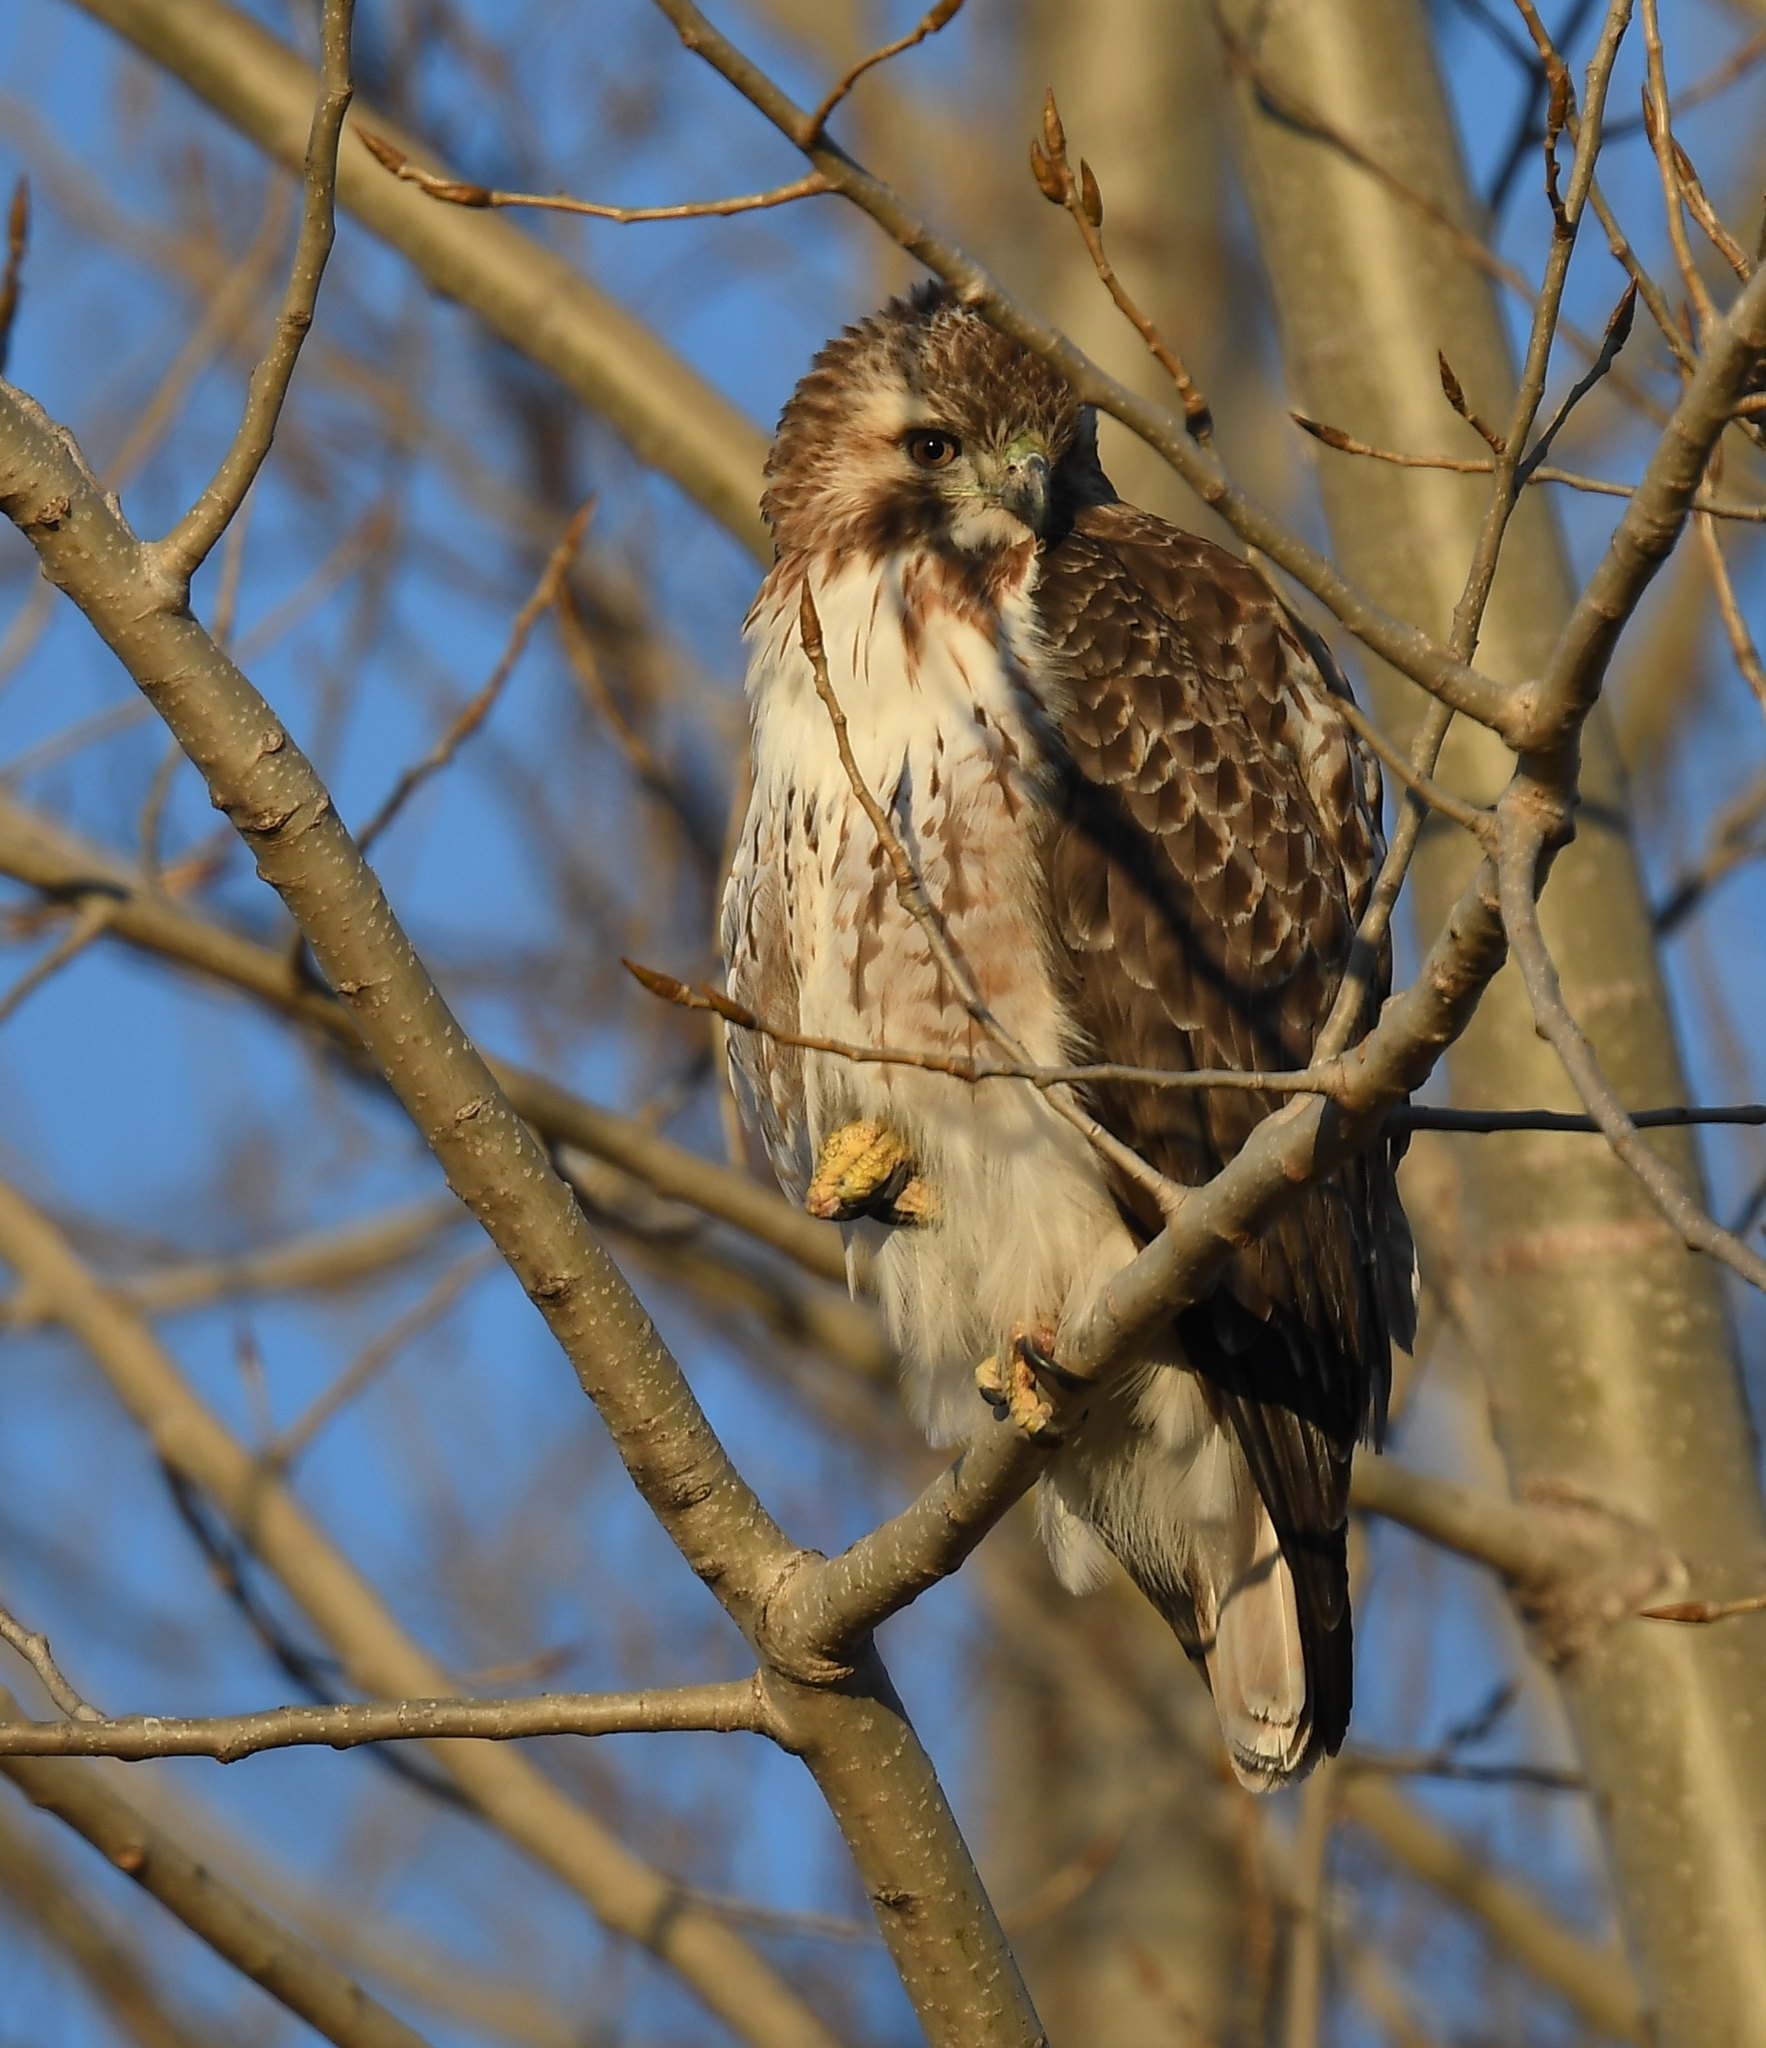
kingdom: Animalia
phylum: Chordata
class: Aves
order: Accipitriformes
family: Accipitridae
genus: Buteo
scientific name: Buteo jamaicensis
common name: Red-tailed hawk
